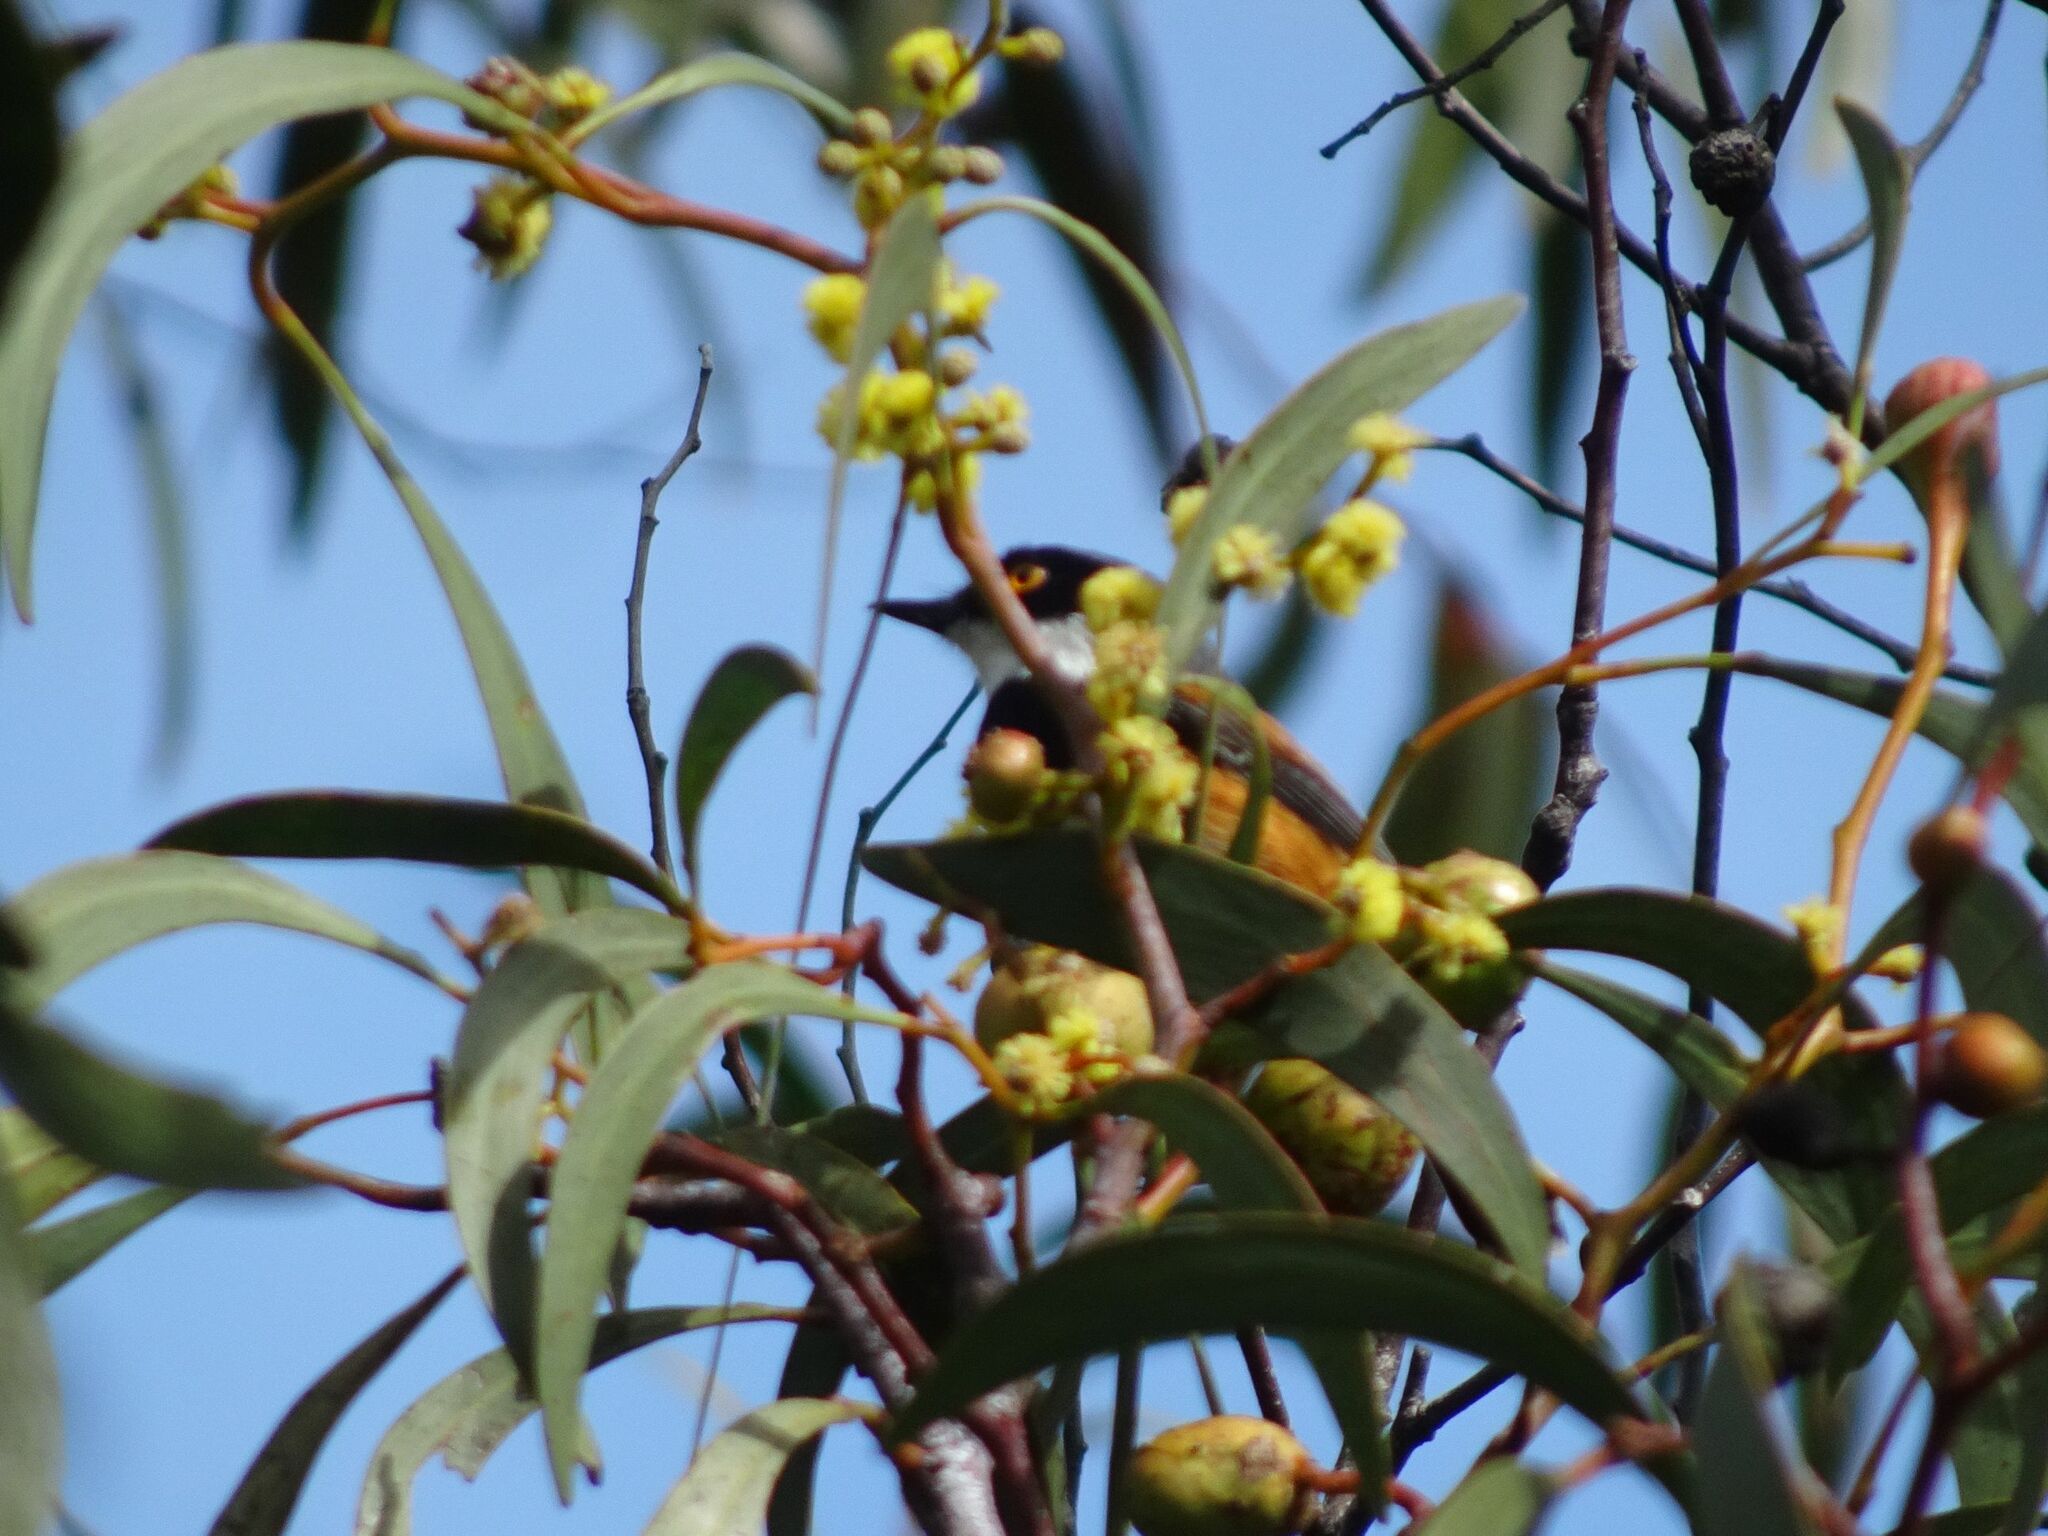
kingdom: Animalia
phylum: Chordata
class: Aves
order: Passeriformes
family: Platysteiridae
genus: Batis
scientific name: Batis capensis
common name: Cape batis
